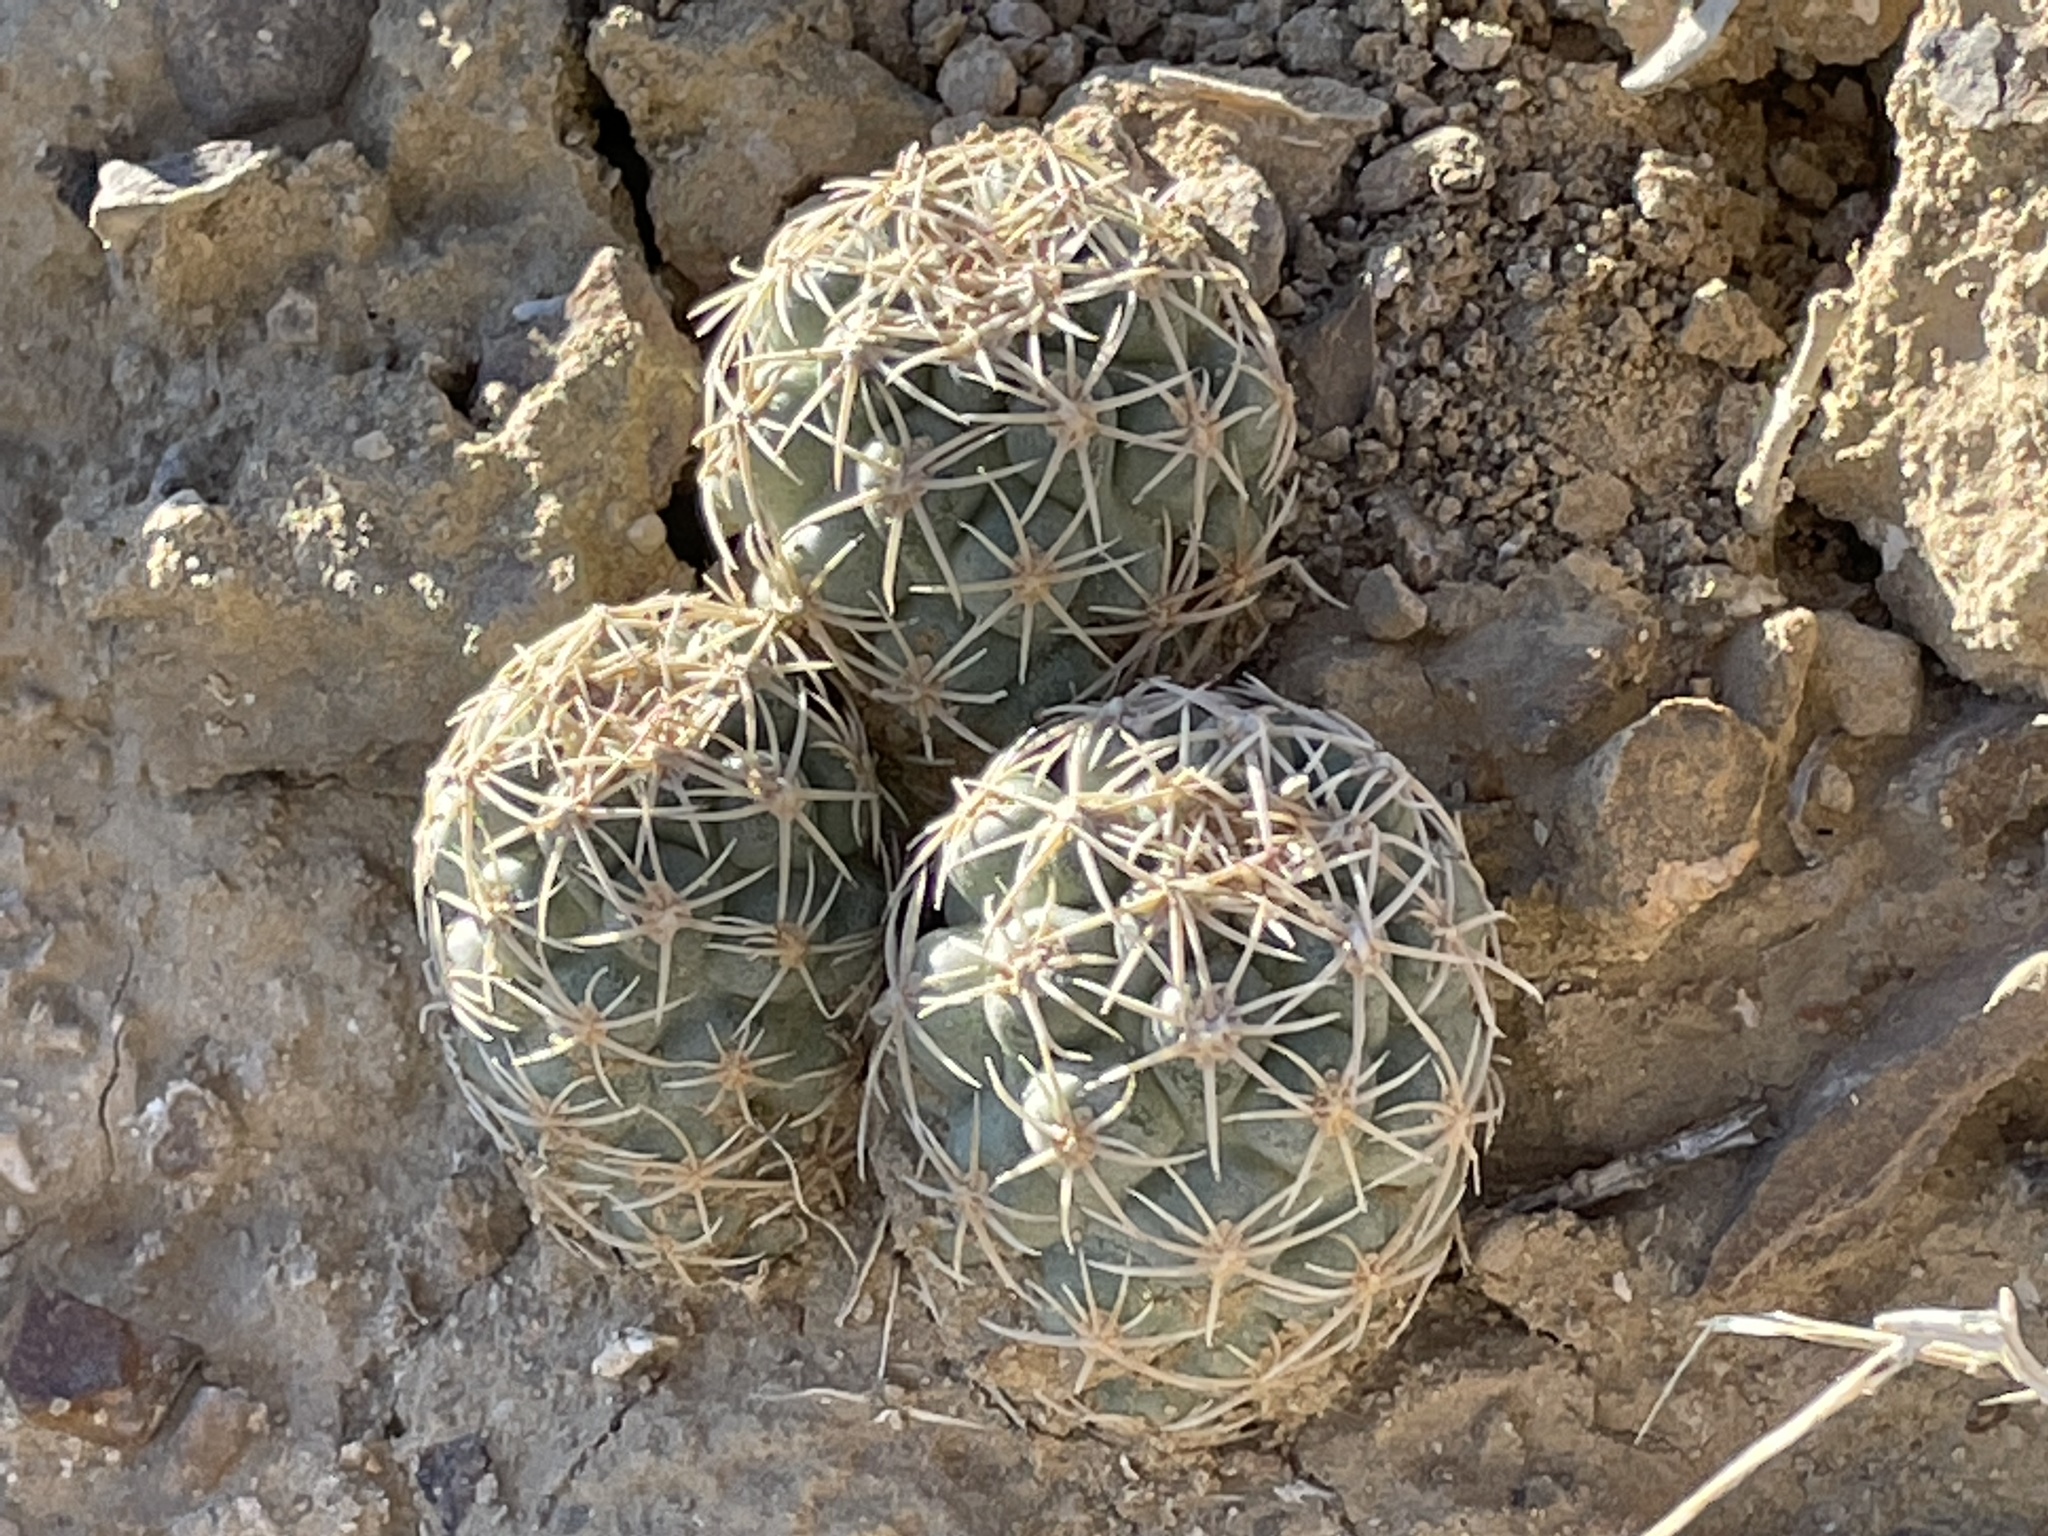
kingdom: Plantae
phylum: Tracheophyta
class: Magnoliopsida
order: Caryophyllales
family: Cactaceae
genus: Sclerocactus
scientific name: Sclerocactus mesae-verdae
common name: Mesa verde cactus
